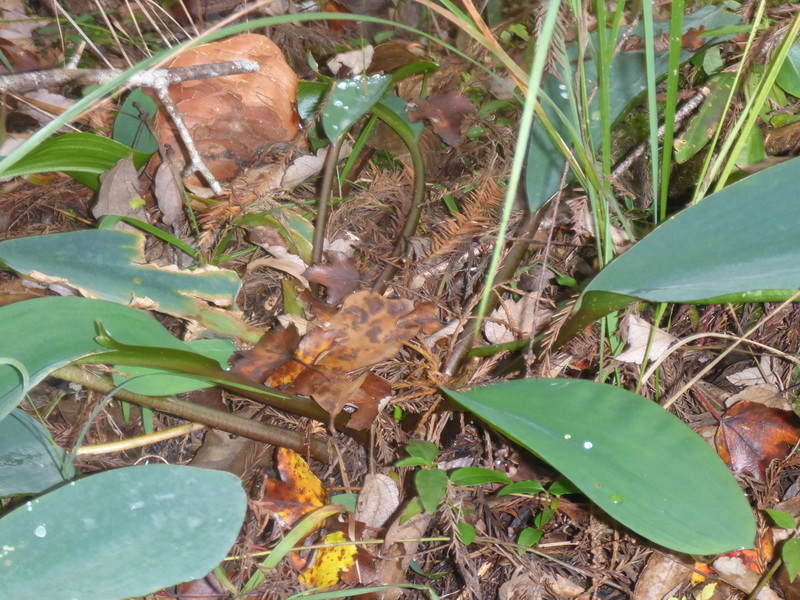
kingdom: Plantae
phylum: Tracheophyta
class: Liliopsida
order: Alismatales
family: Araceae
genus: Orontium
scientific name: Orontium aquaticum
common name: Golden-club
